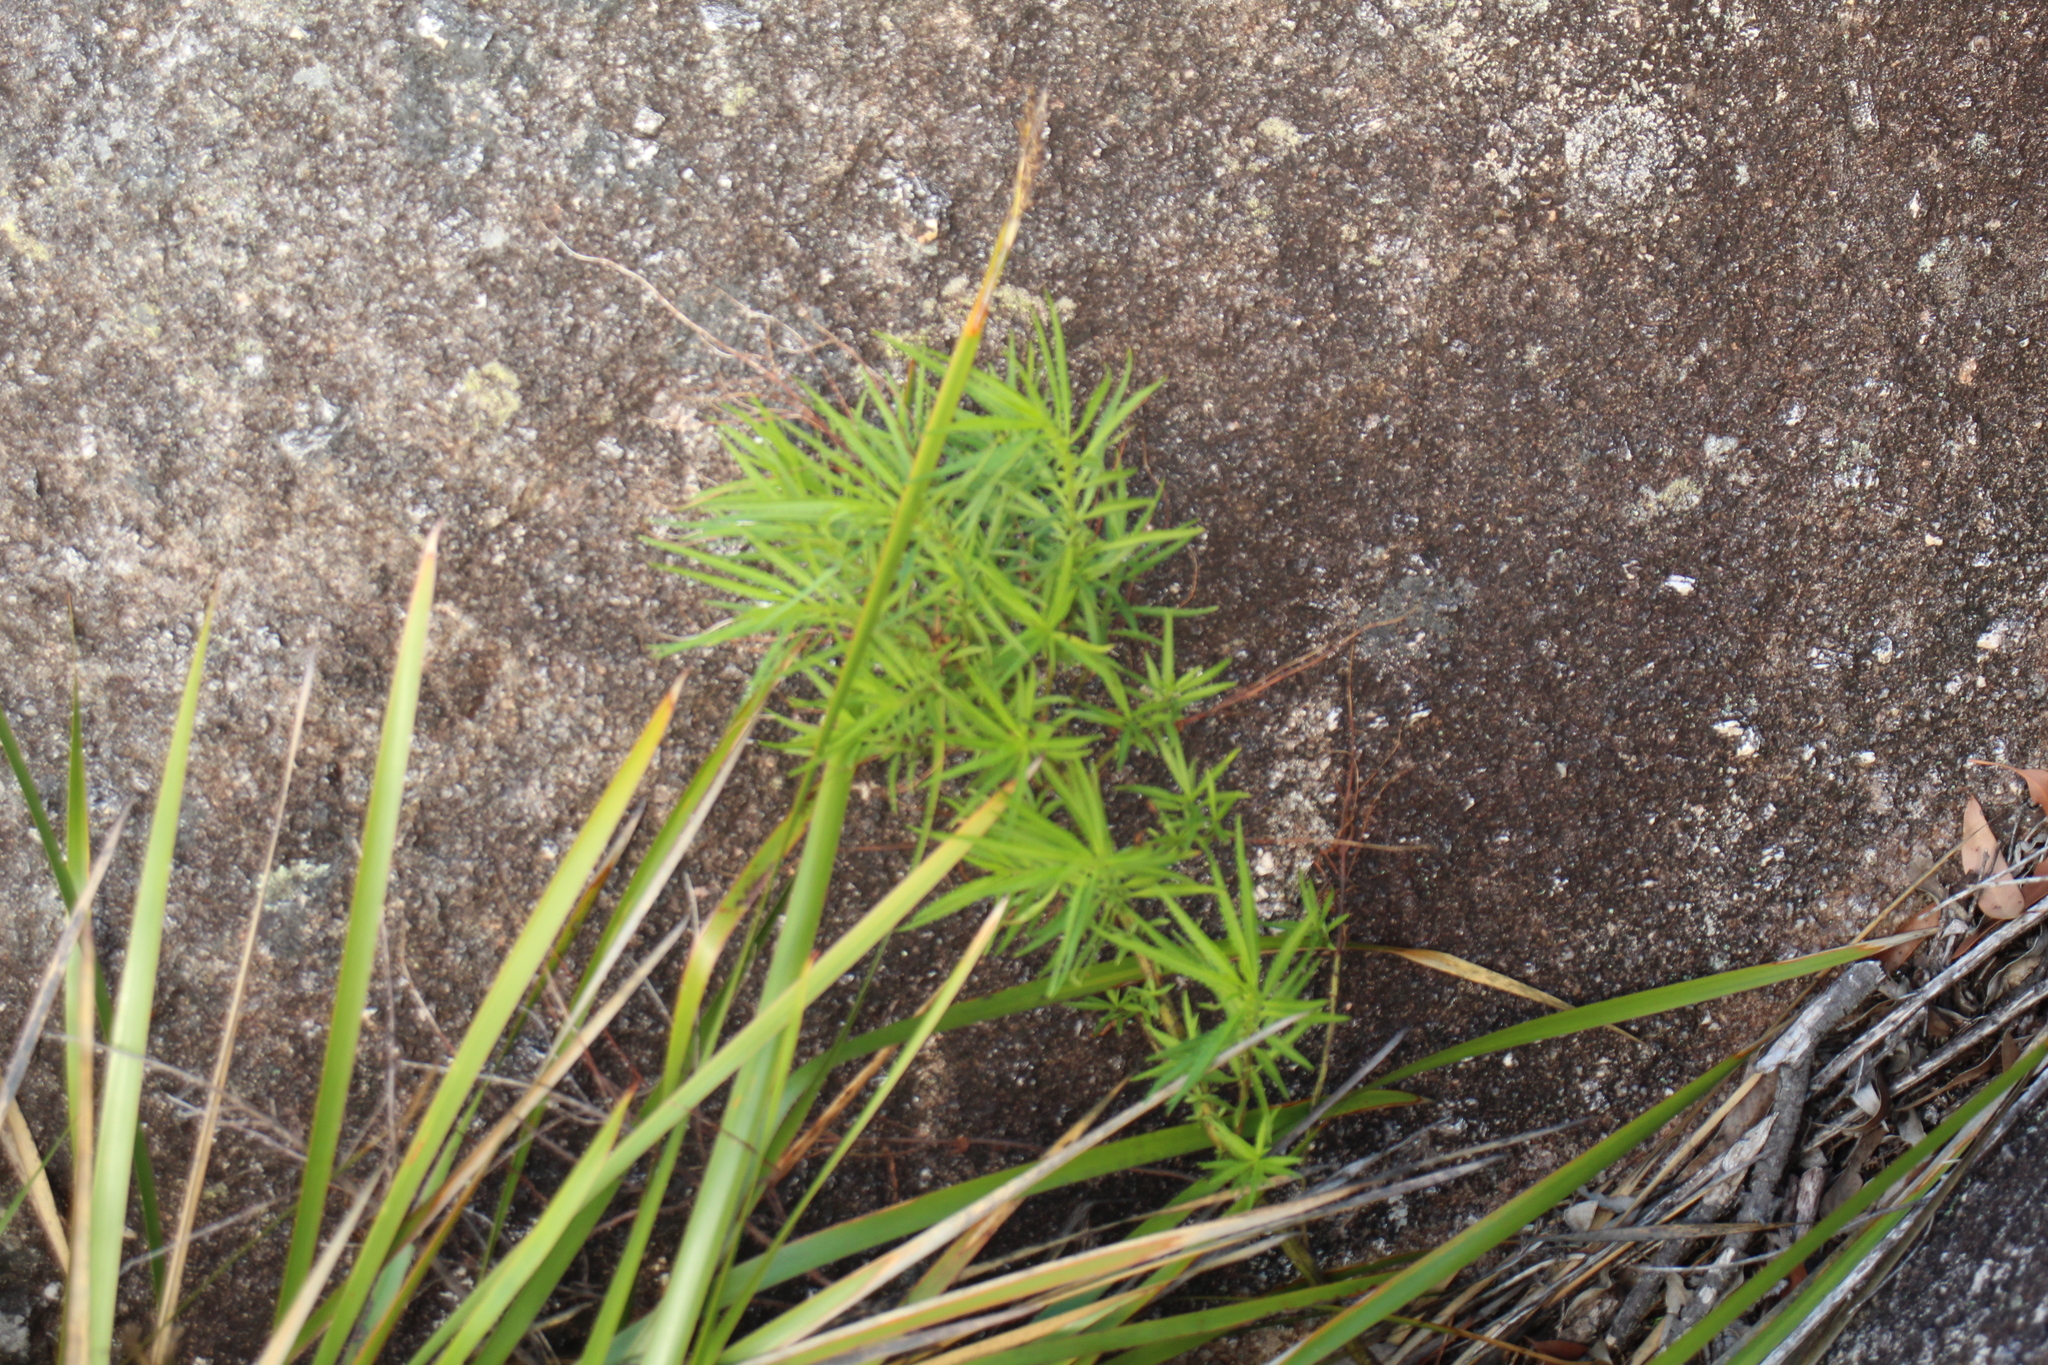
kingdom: Plantae
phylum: Tracheophyta
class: Magnoliopsida
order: Saxifragales
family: Haloragaceae
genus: Glischrocaryon
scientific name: Glischrocaryon racemosum
